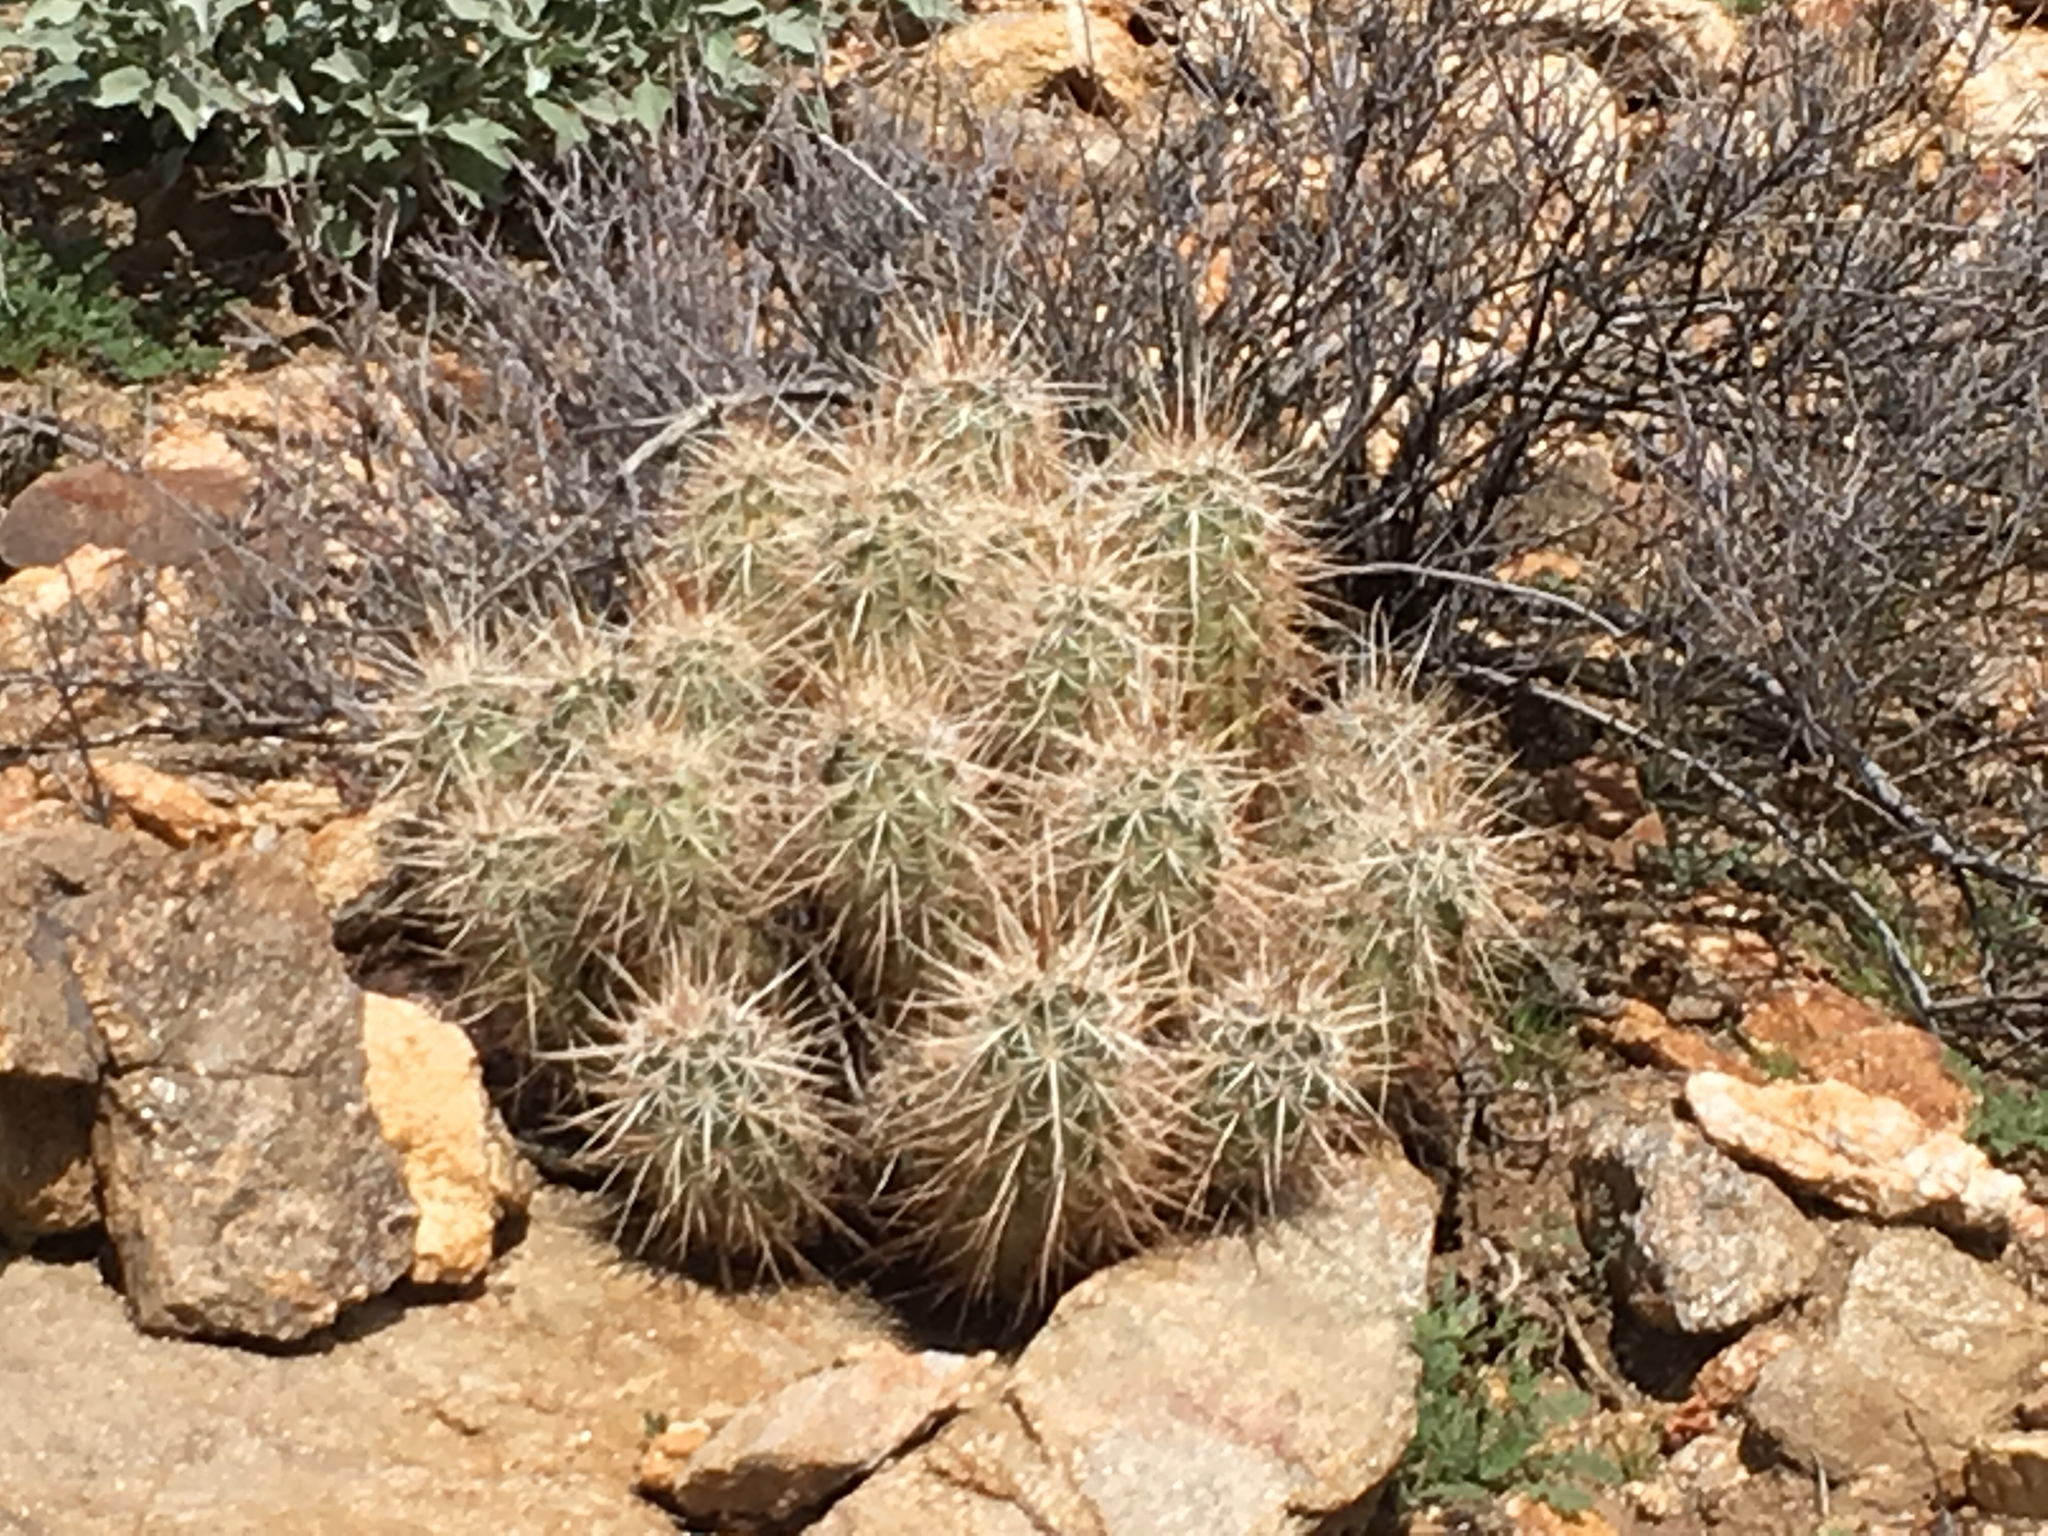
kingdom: Plantae
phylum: Tracheophyta
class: Magnoliopsida
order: Caryophyllales
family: Cactaceae
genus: Echinocereus
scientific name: Echinocereus engelmannii
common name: Engelmann's hedgehog cactus
